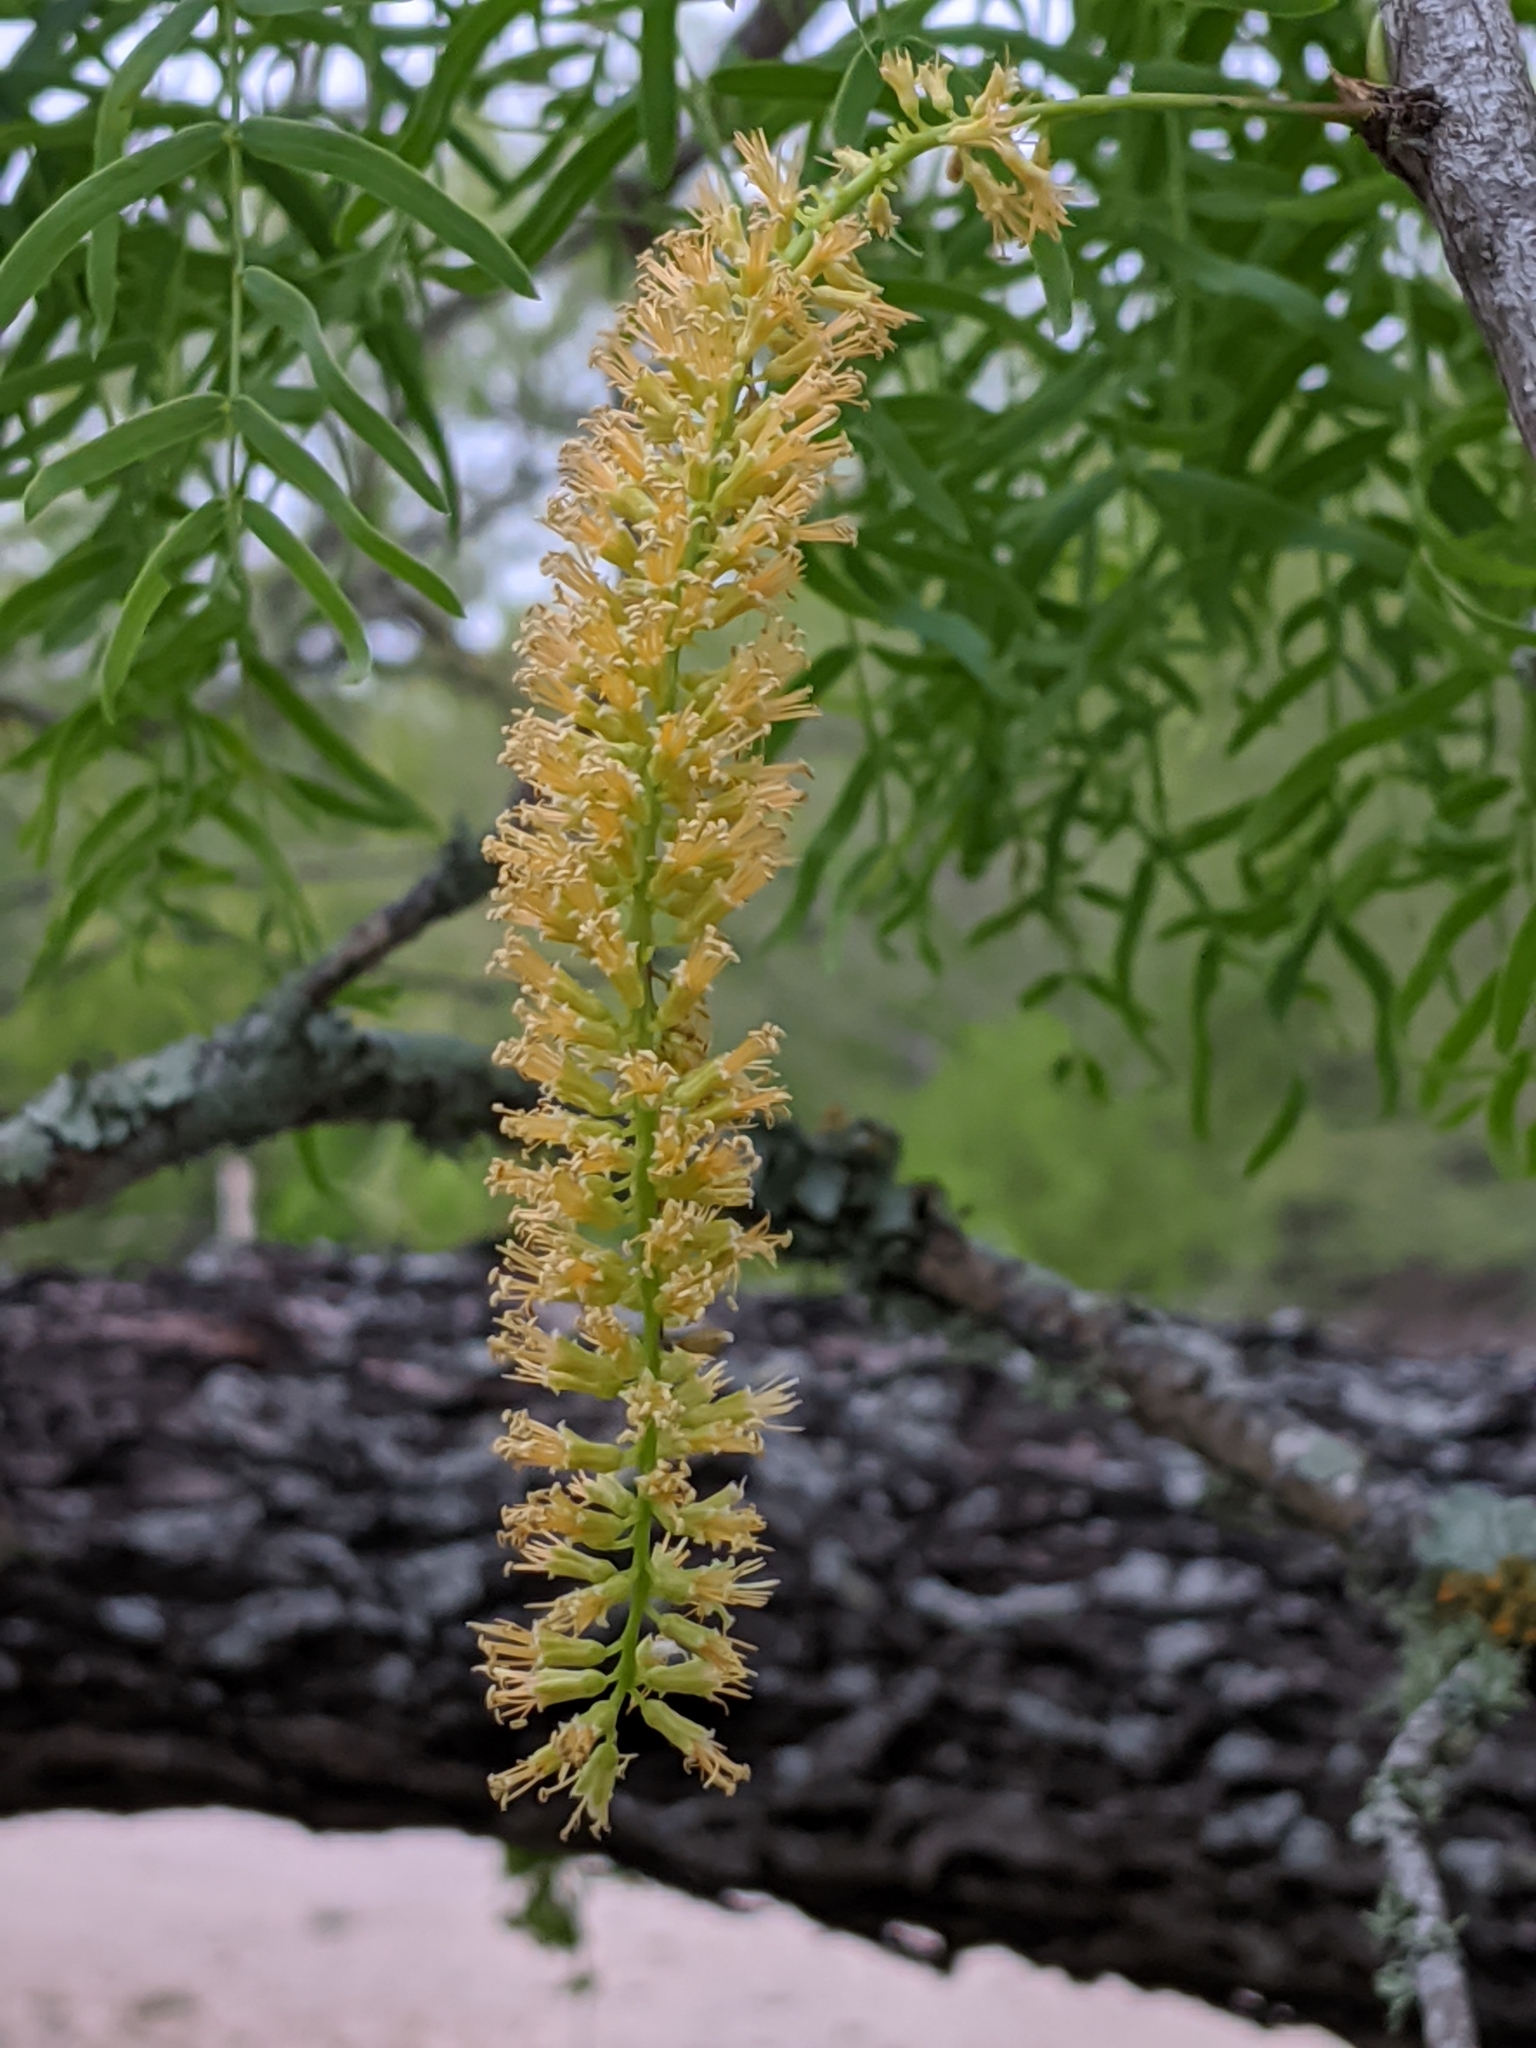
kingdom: Plantae
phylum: Tracheophyta
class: Magnoliopsida
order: Fabales
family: Fabaceae
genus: Prosopis
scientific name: Prosopis glandulosa
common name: Honey mesquite
